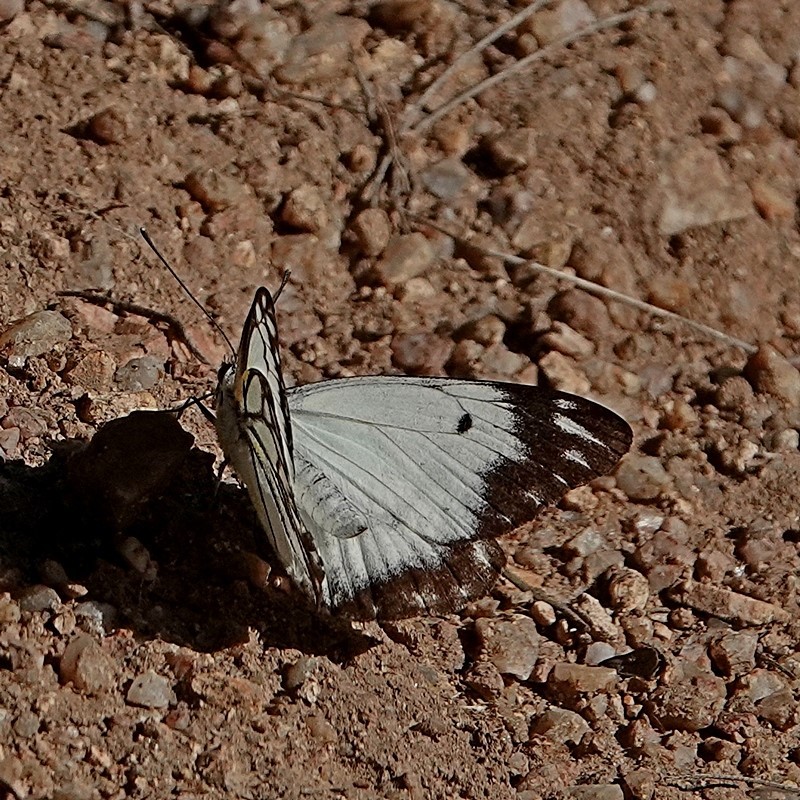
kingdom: Animalia
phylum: Arthropoda
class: Insecta
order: Lepidoptera
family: Pieridae
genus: Belenois
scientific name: Belenois java
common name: Caper white
